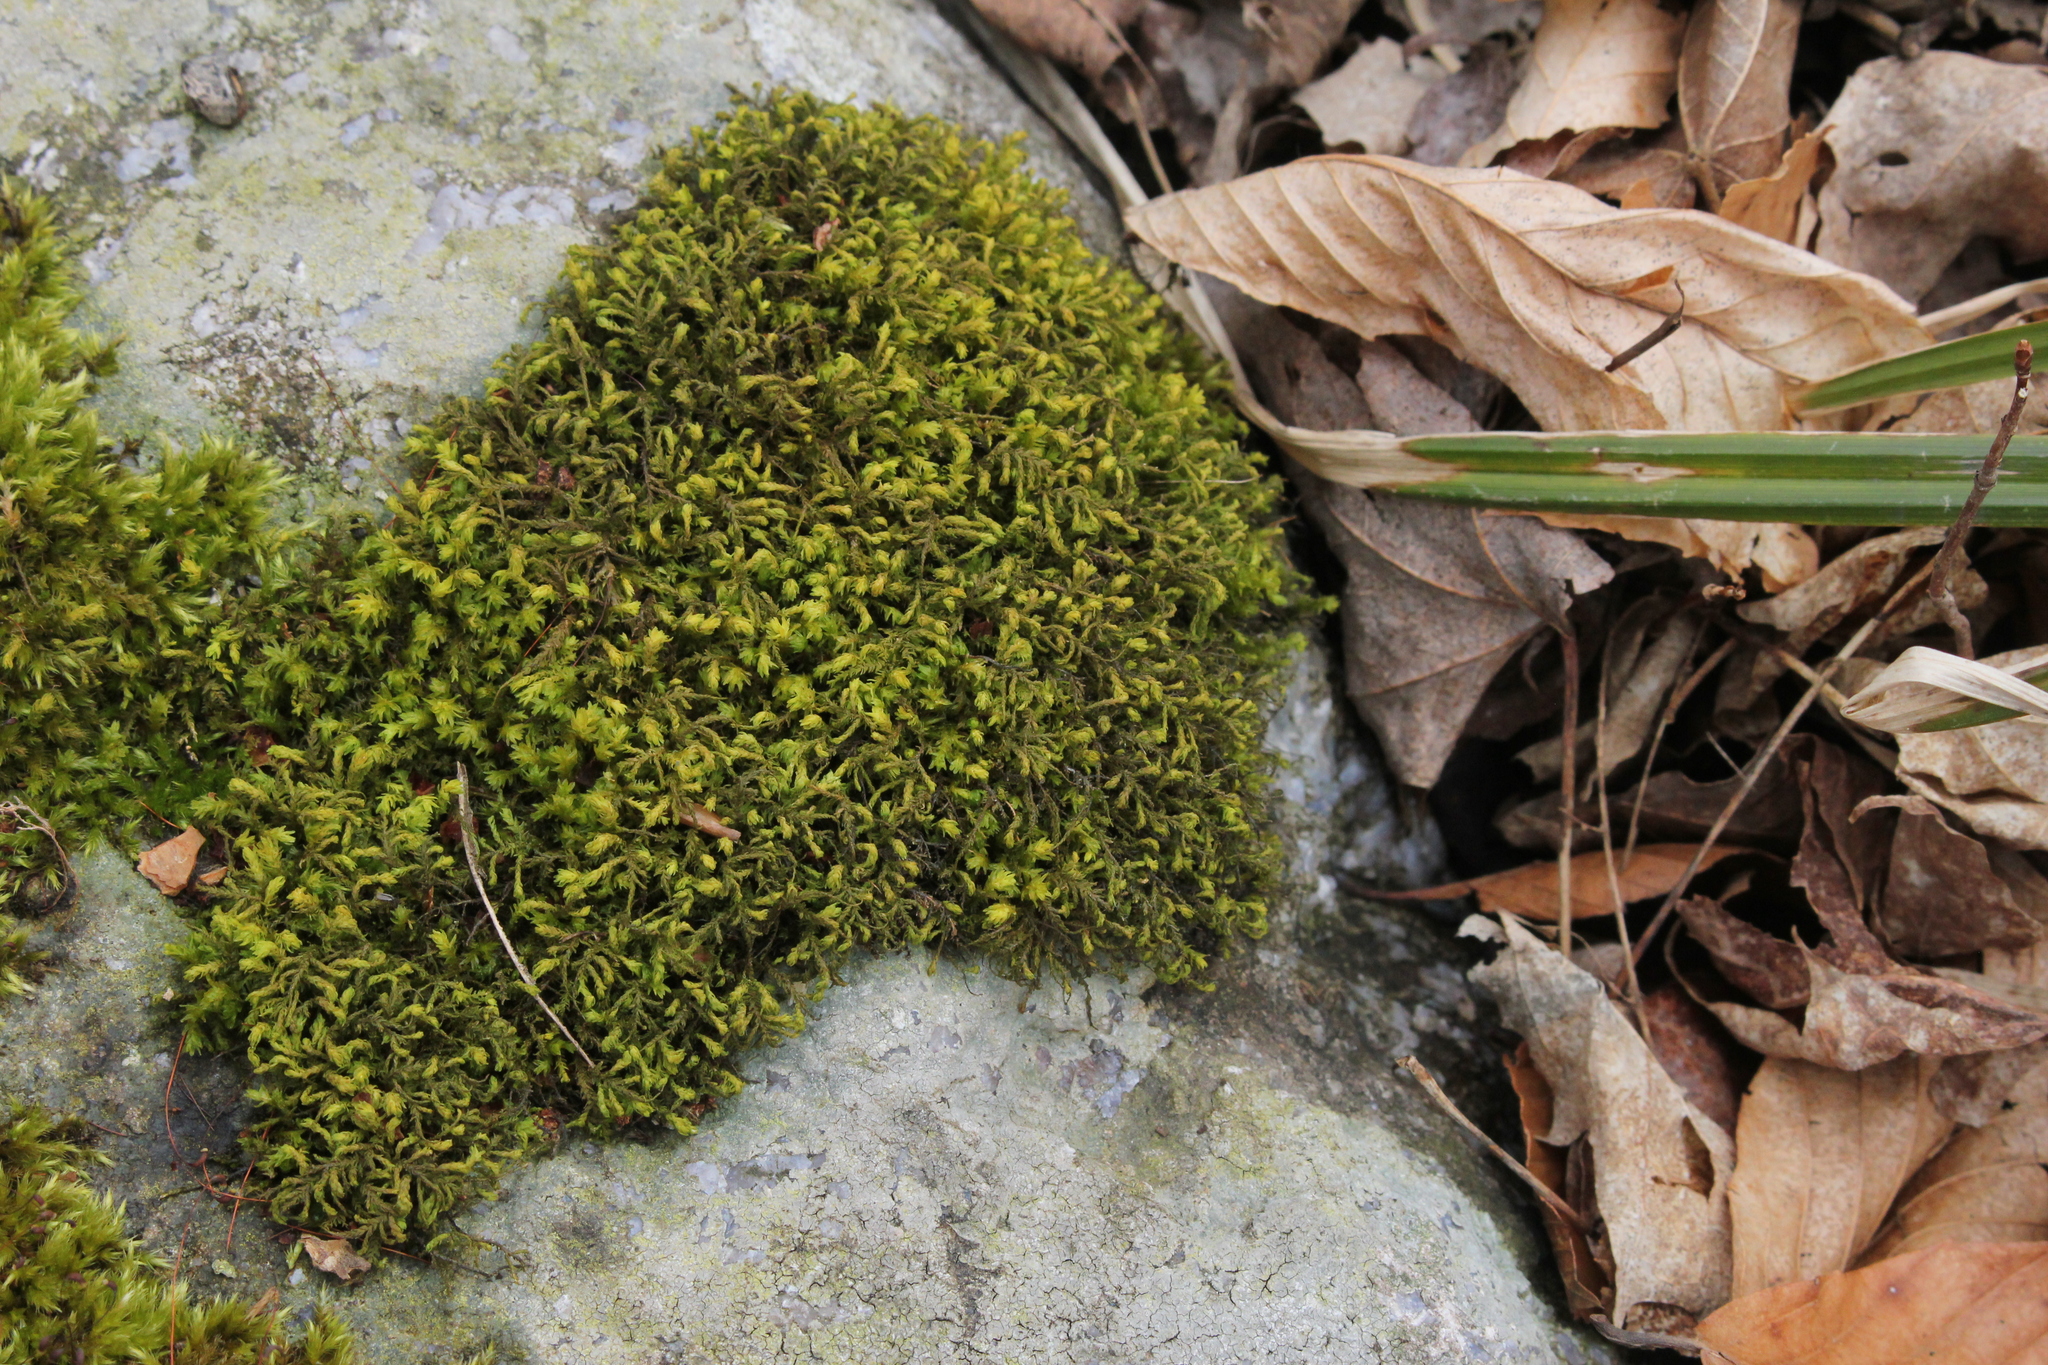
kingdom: Plantae
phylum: Bryophyta
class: Bryopsida
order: Hypnales
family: Neckeraceae
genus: Pseudanomodon
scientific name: Pseudanomodon attenuatus
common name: Tree-skirt moss
